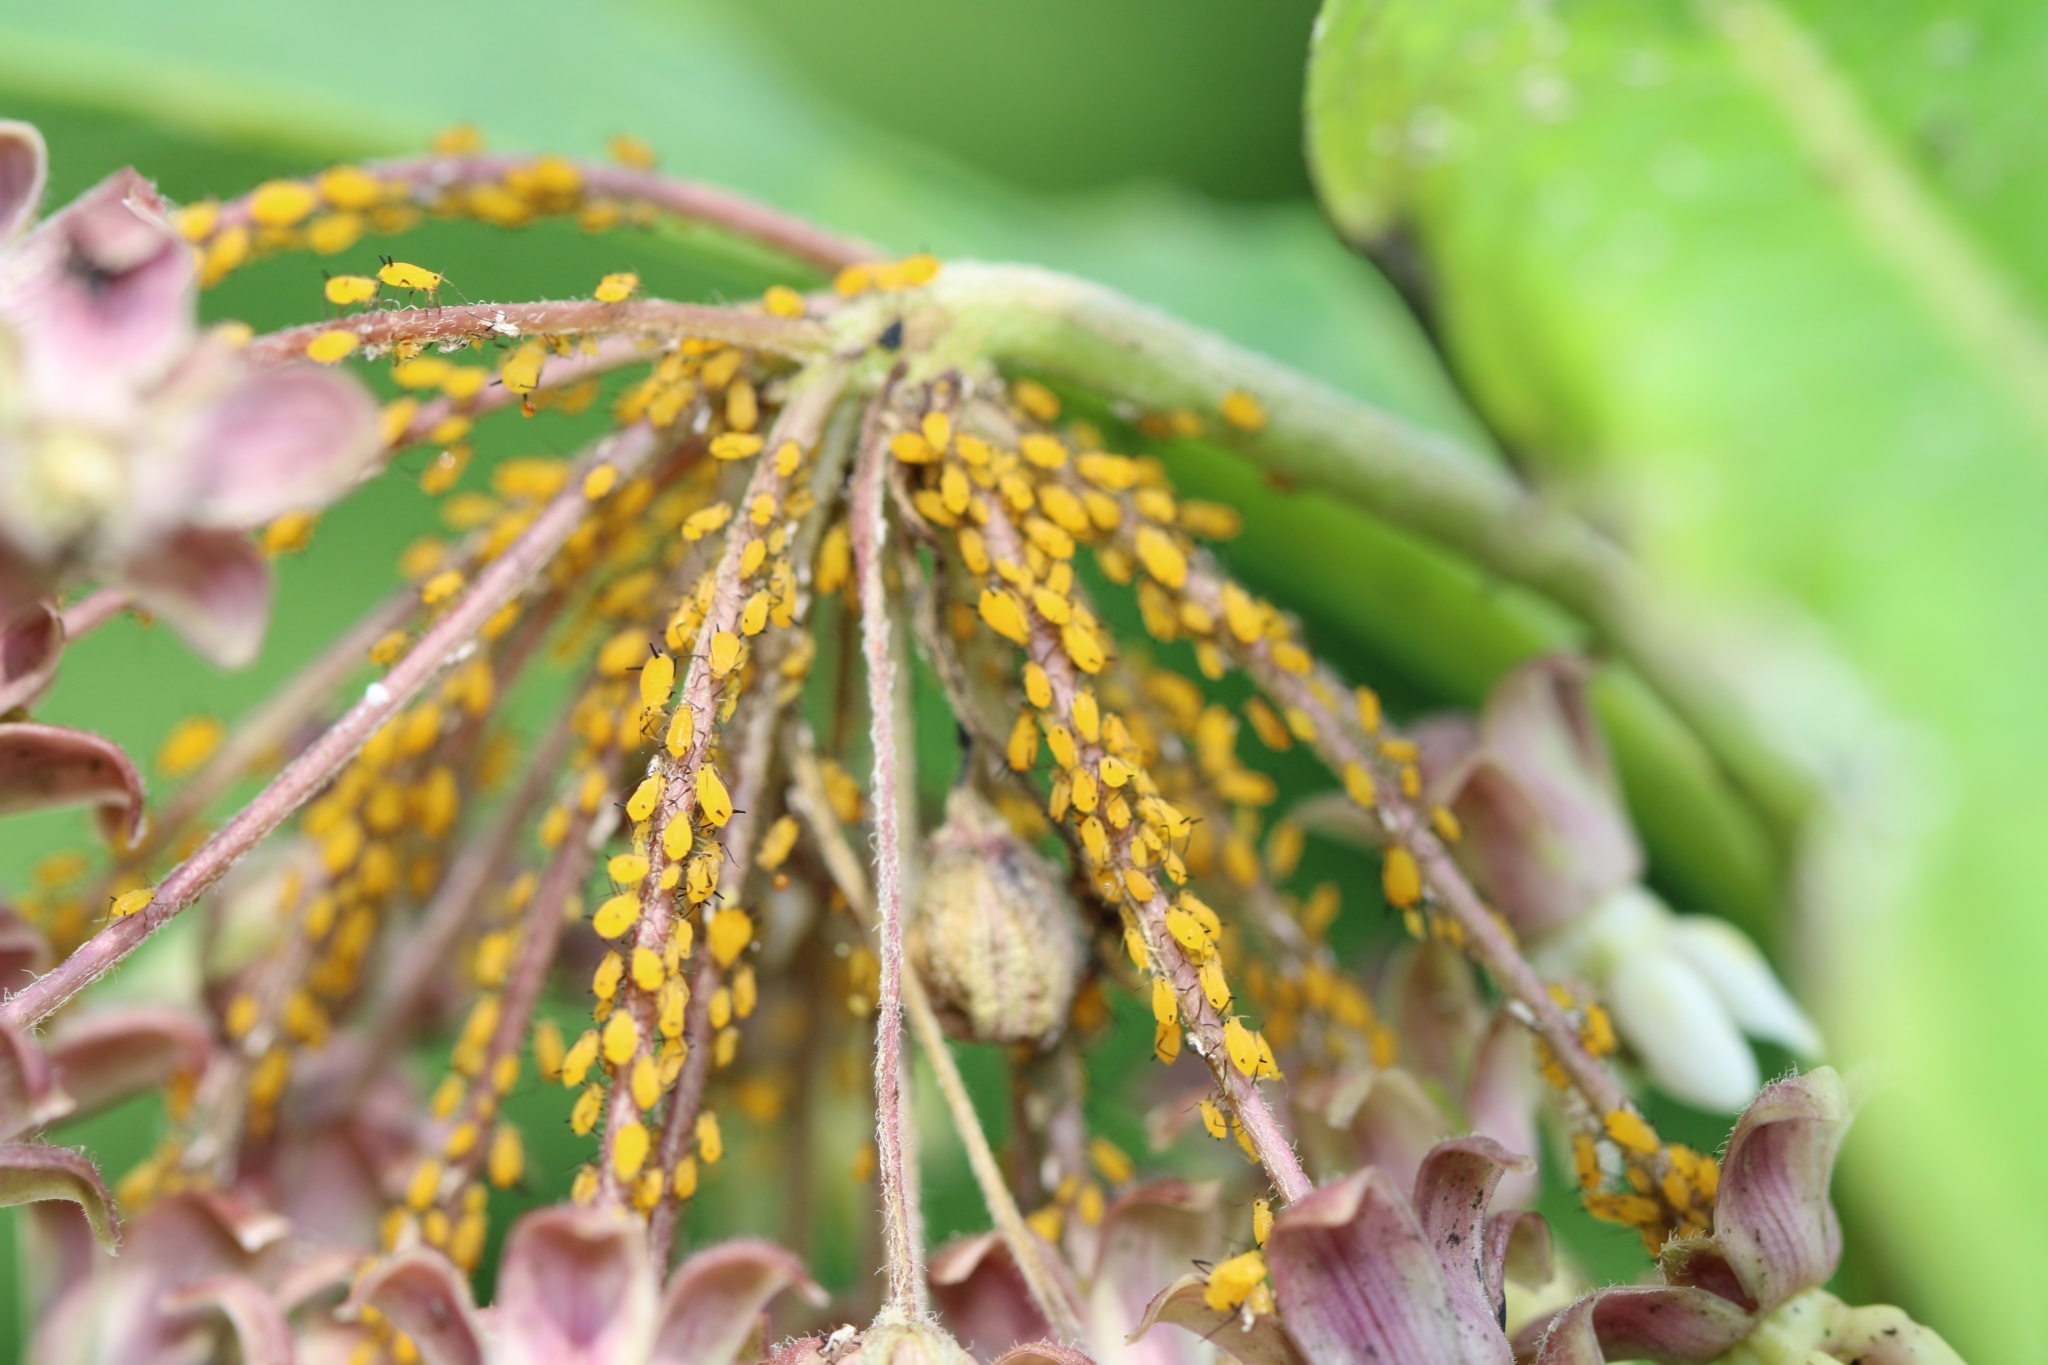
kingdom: Animalia
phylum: Arthropoda
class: Insecta
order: Hemiptera
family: Aphididae
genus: Aphis
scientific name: Aphis nerii
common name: Oleander aphid
